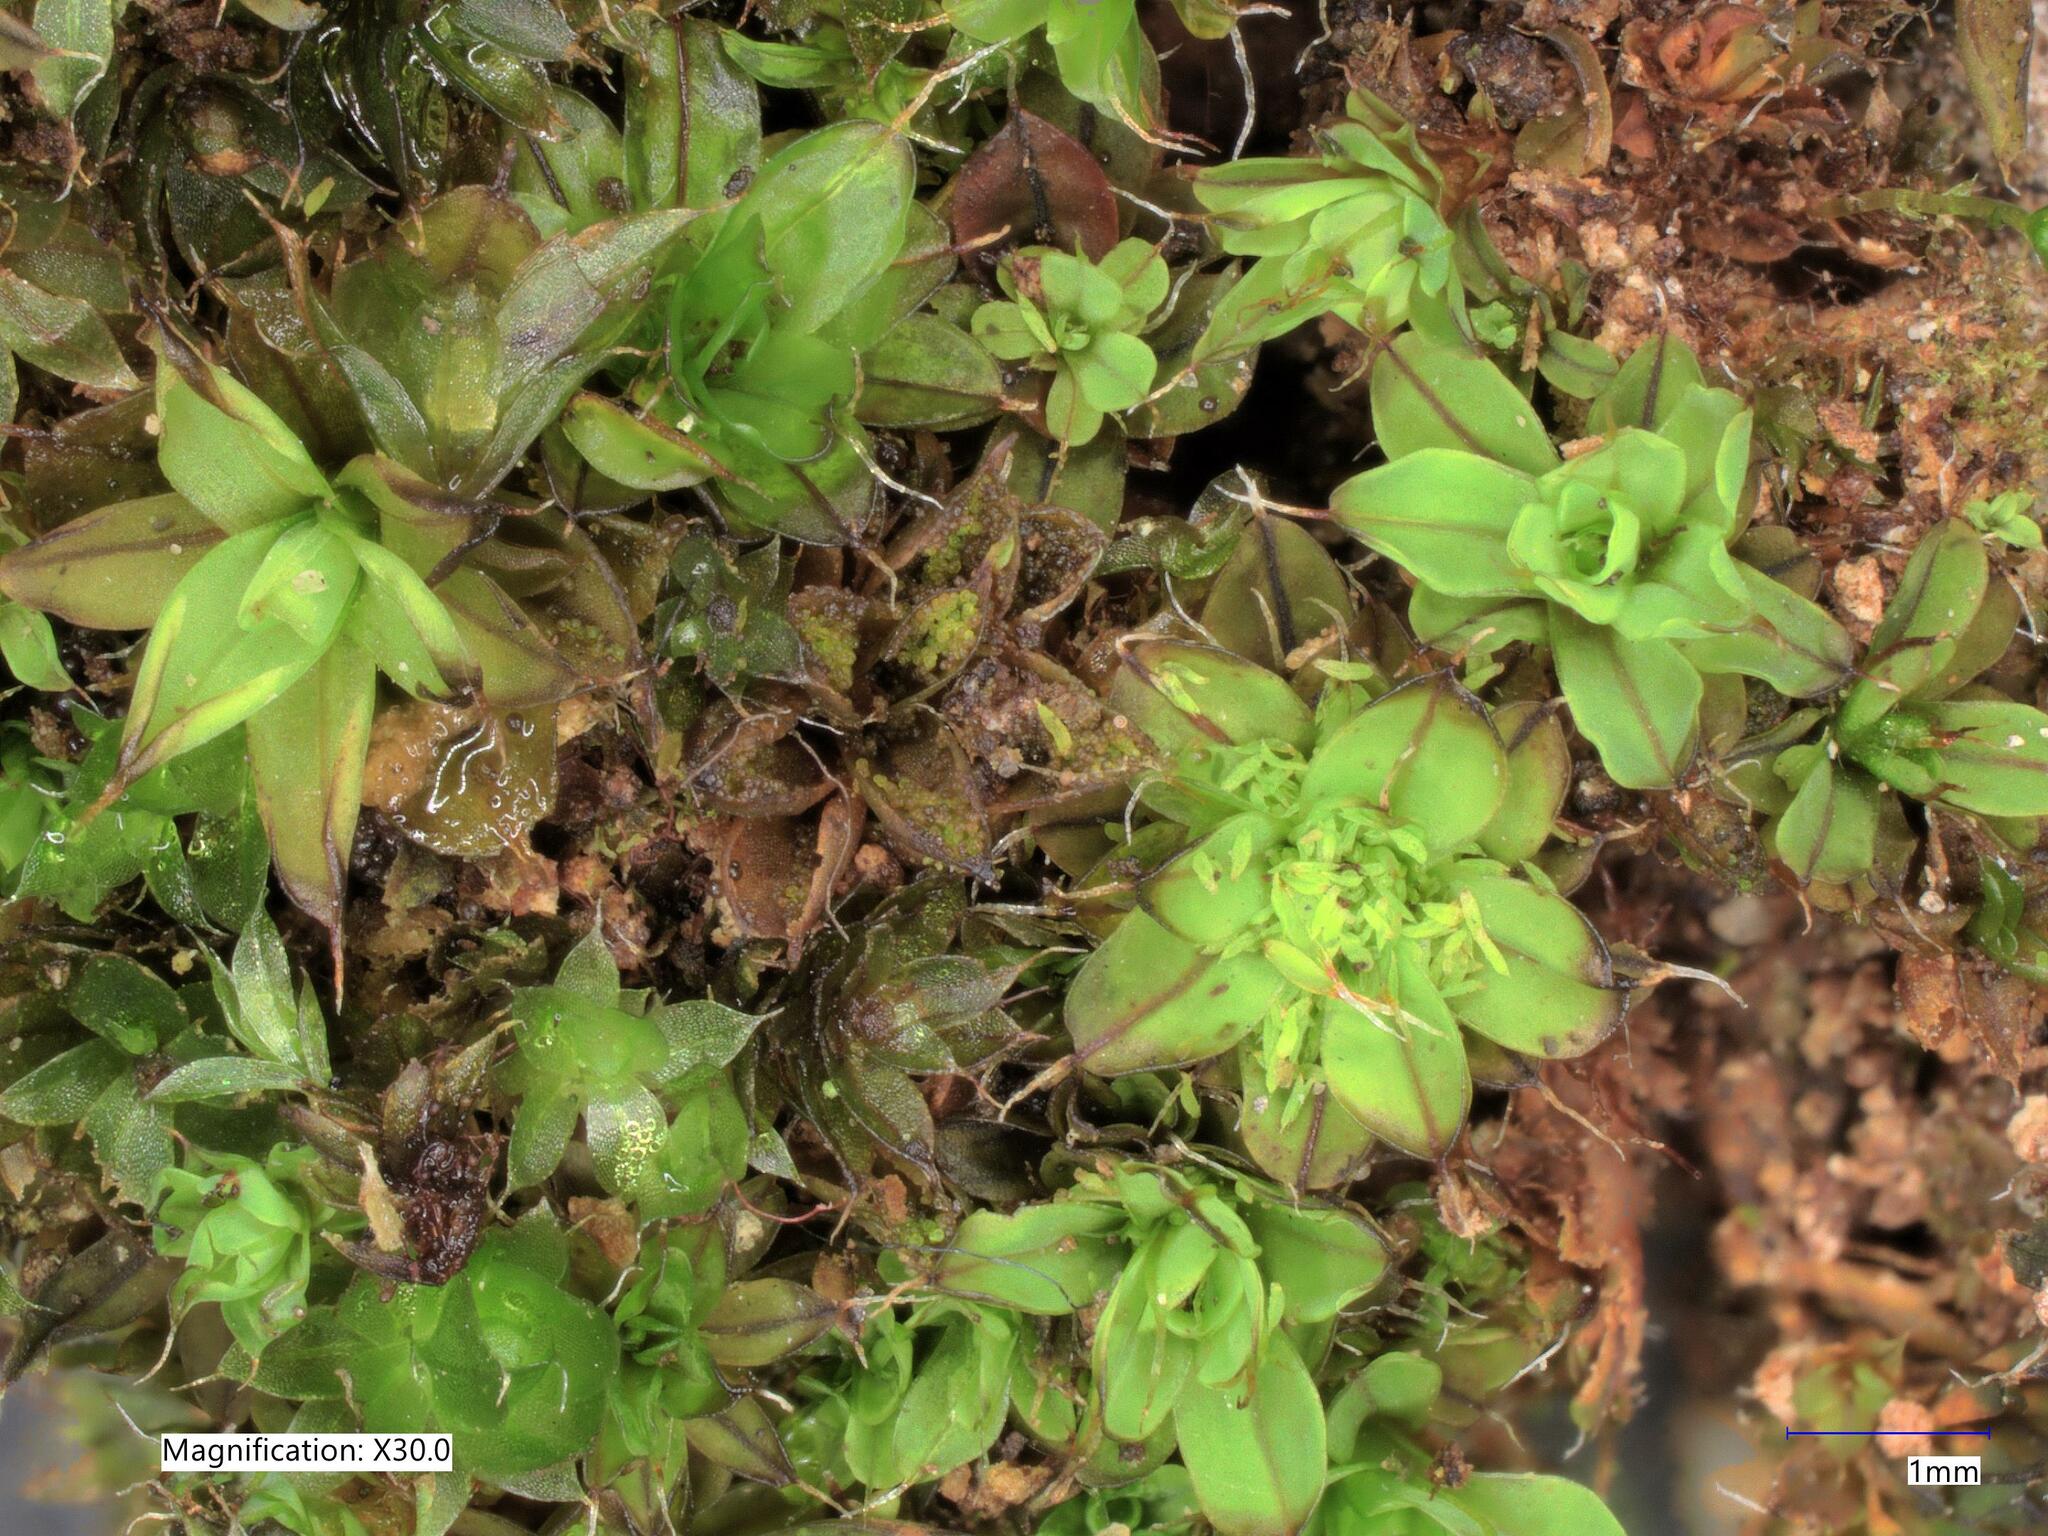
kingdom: Plantae
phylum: Bryophyta
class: Bryopsida
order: Pottiales
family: Pottiaceae
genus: Syntrichia
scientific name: Syntrichia pagorum
